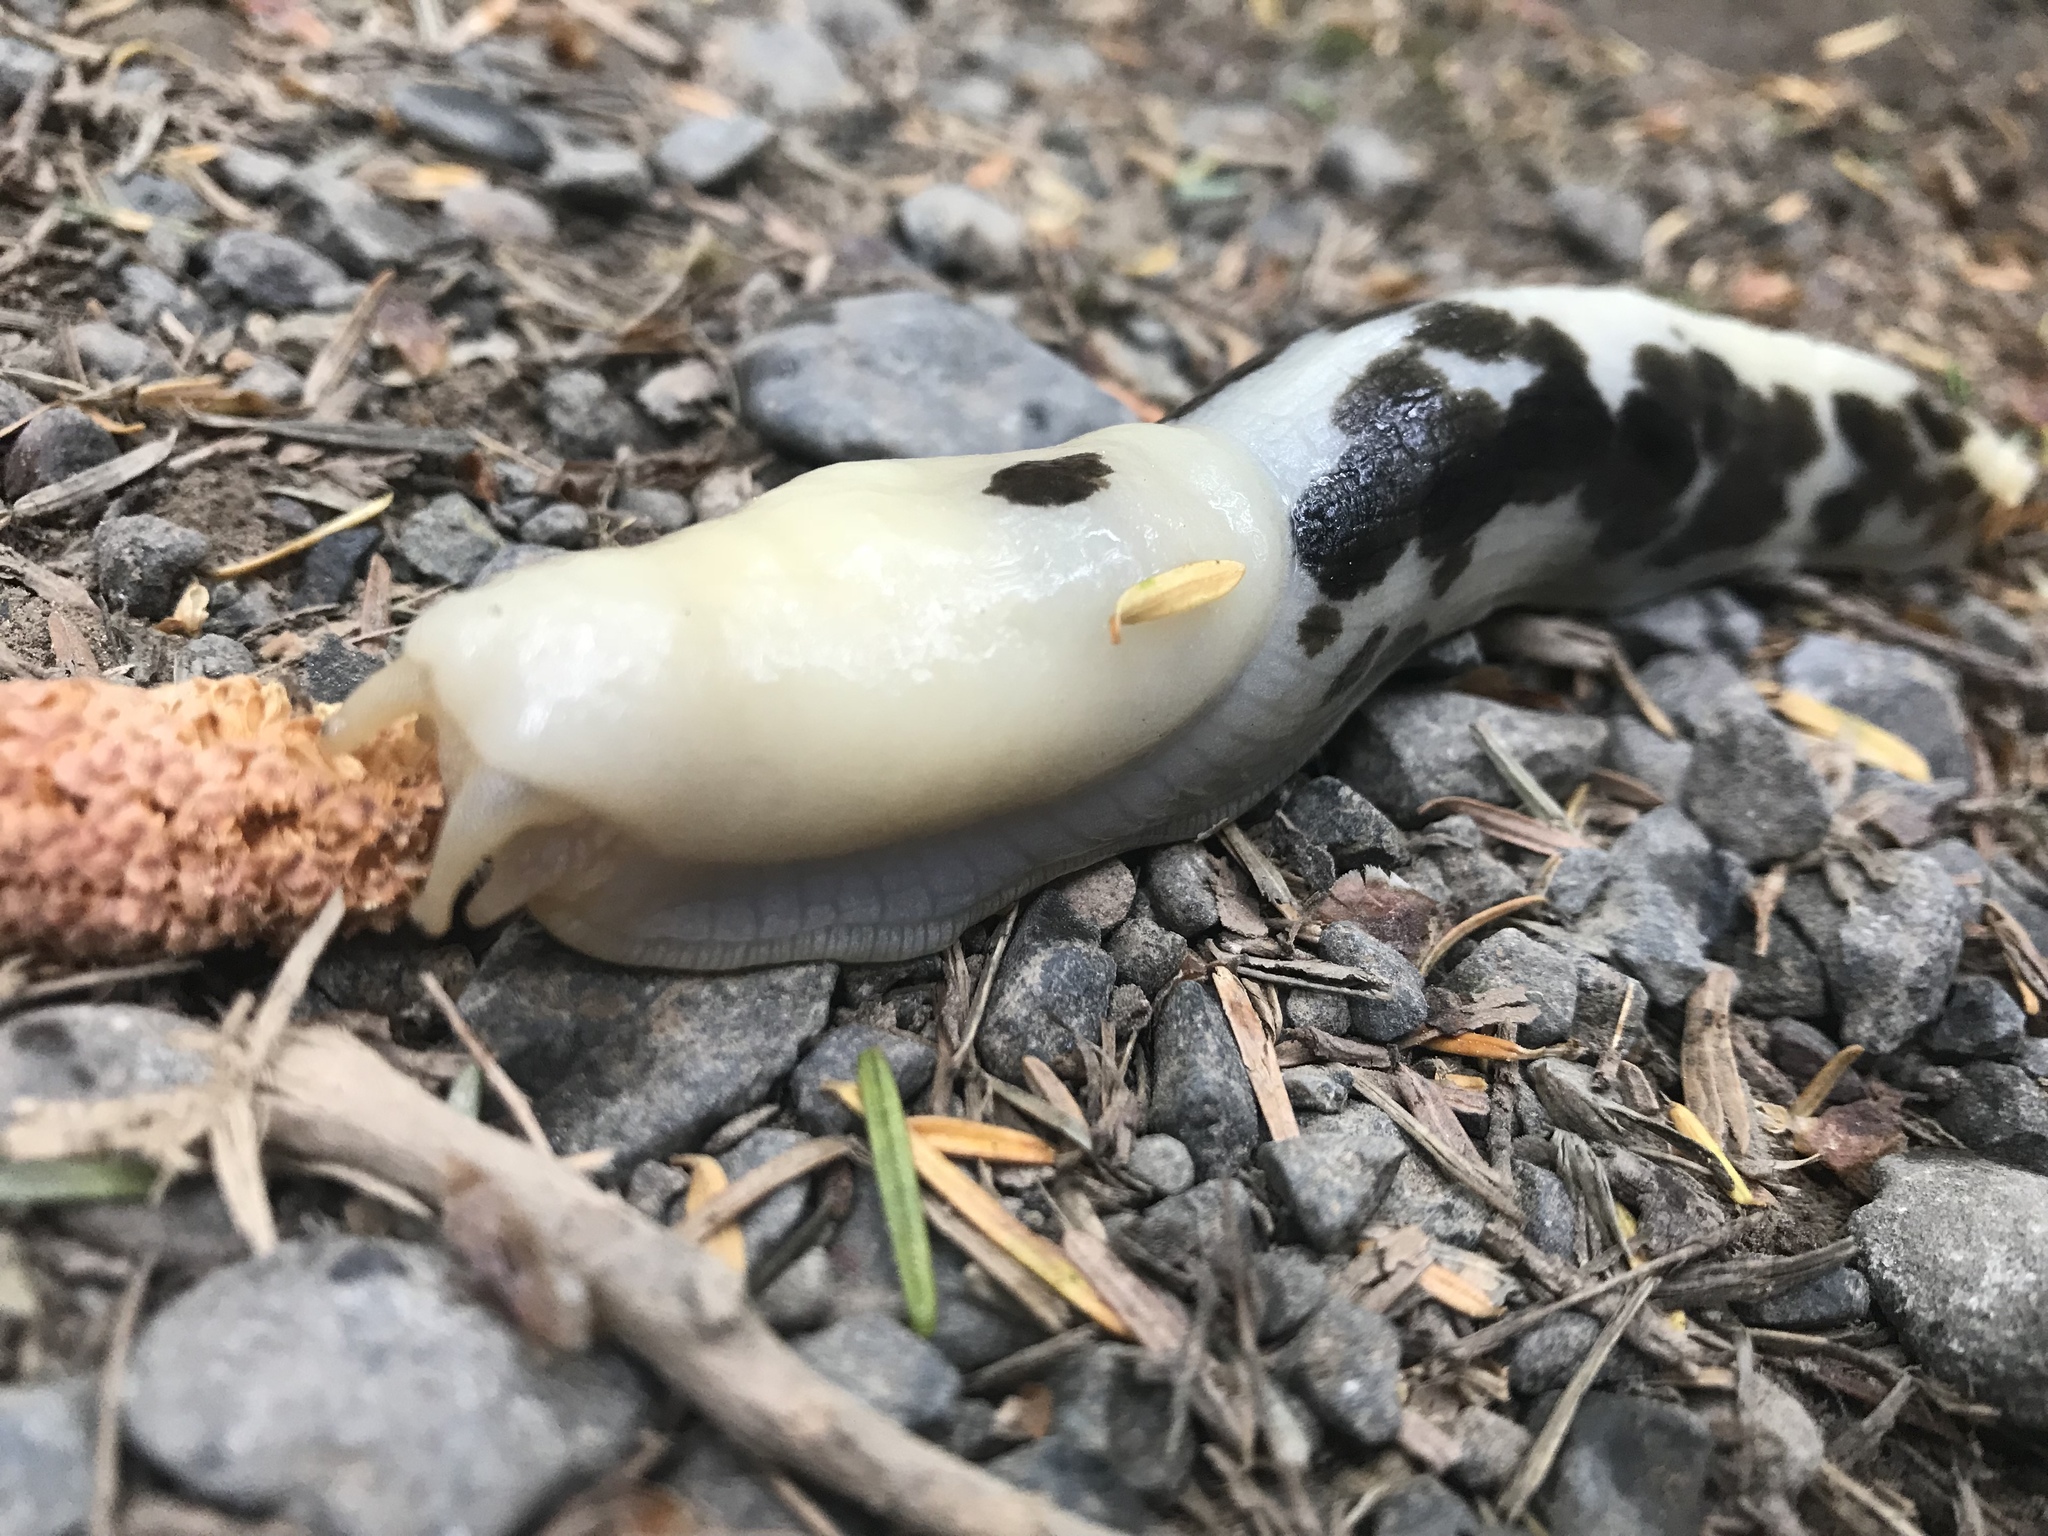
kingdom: Animalia
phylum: Mollusca
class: Gastropoda
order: Stylommatophora
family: Ariolimacidae
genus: Ariolimax
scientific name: Ariolimax columbianus
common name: Pacific banana slug
